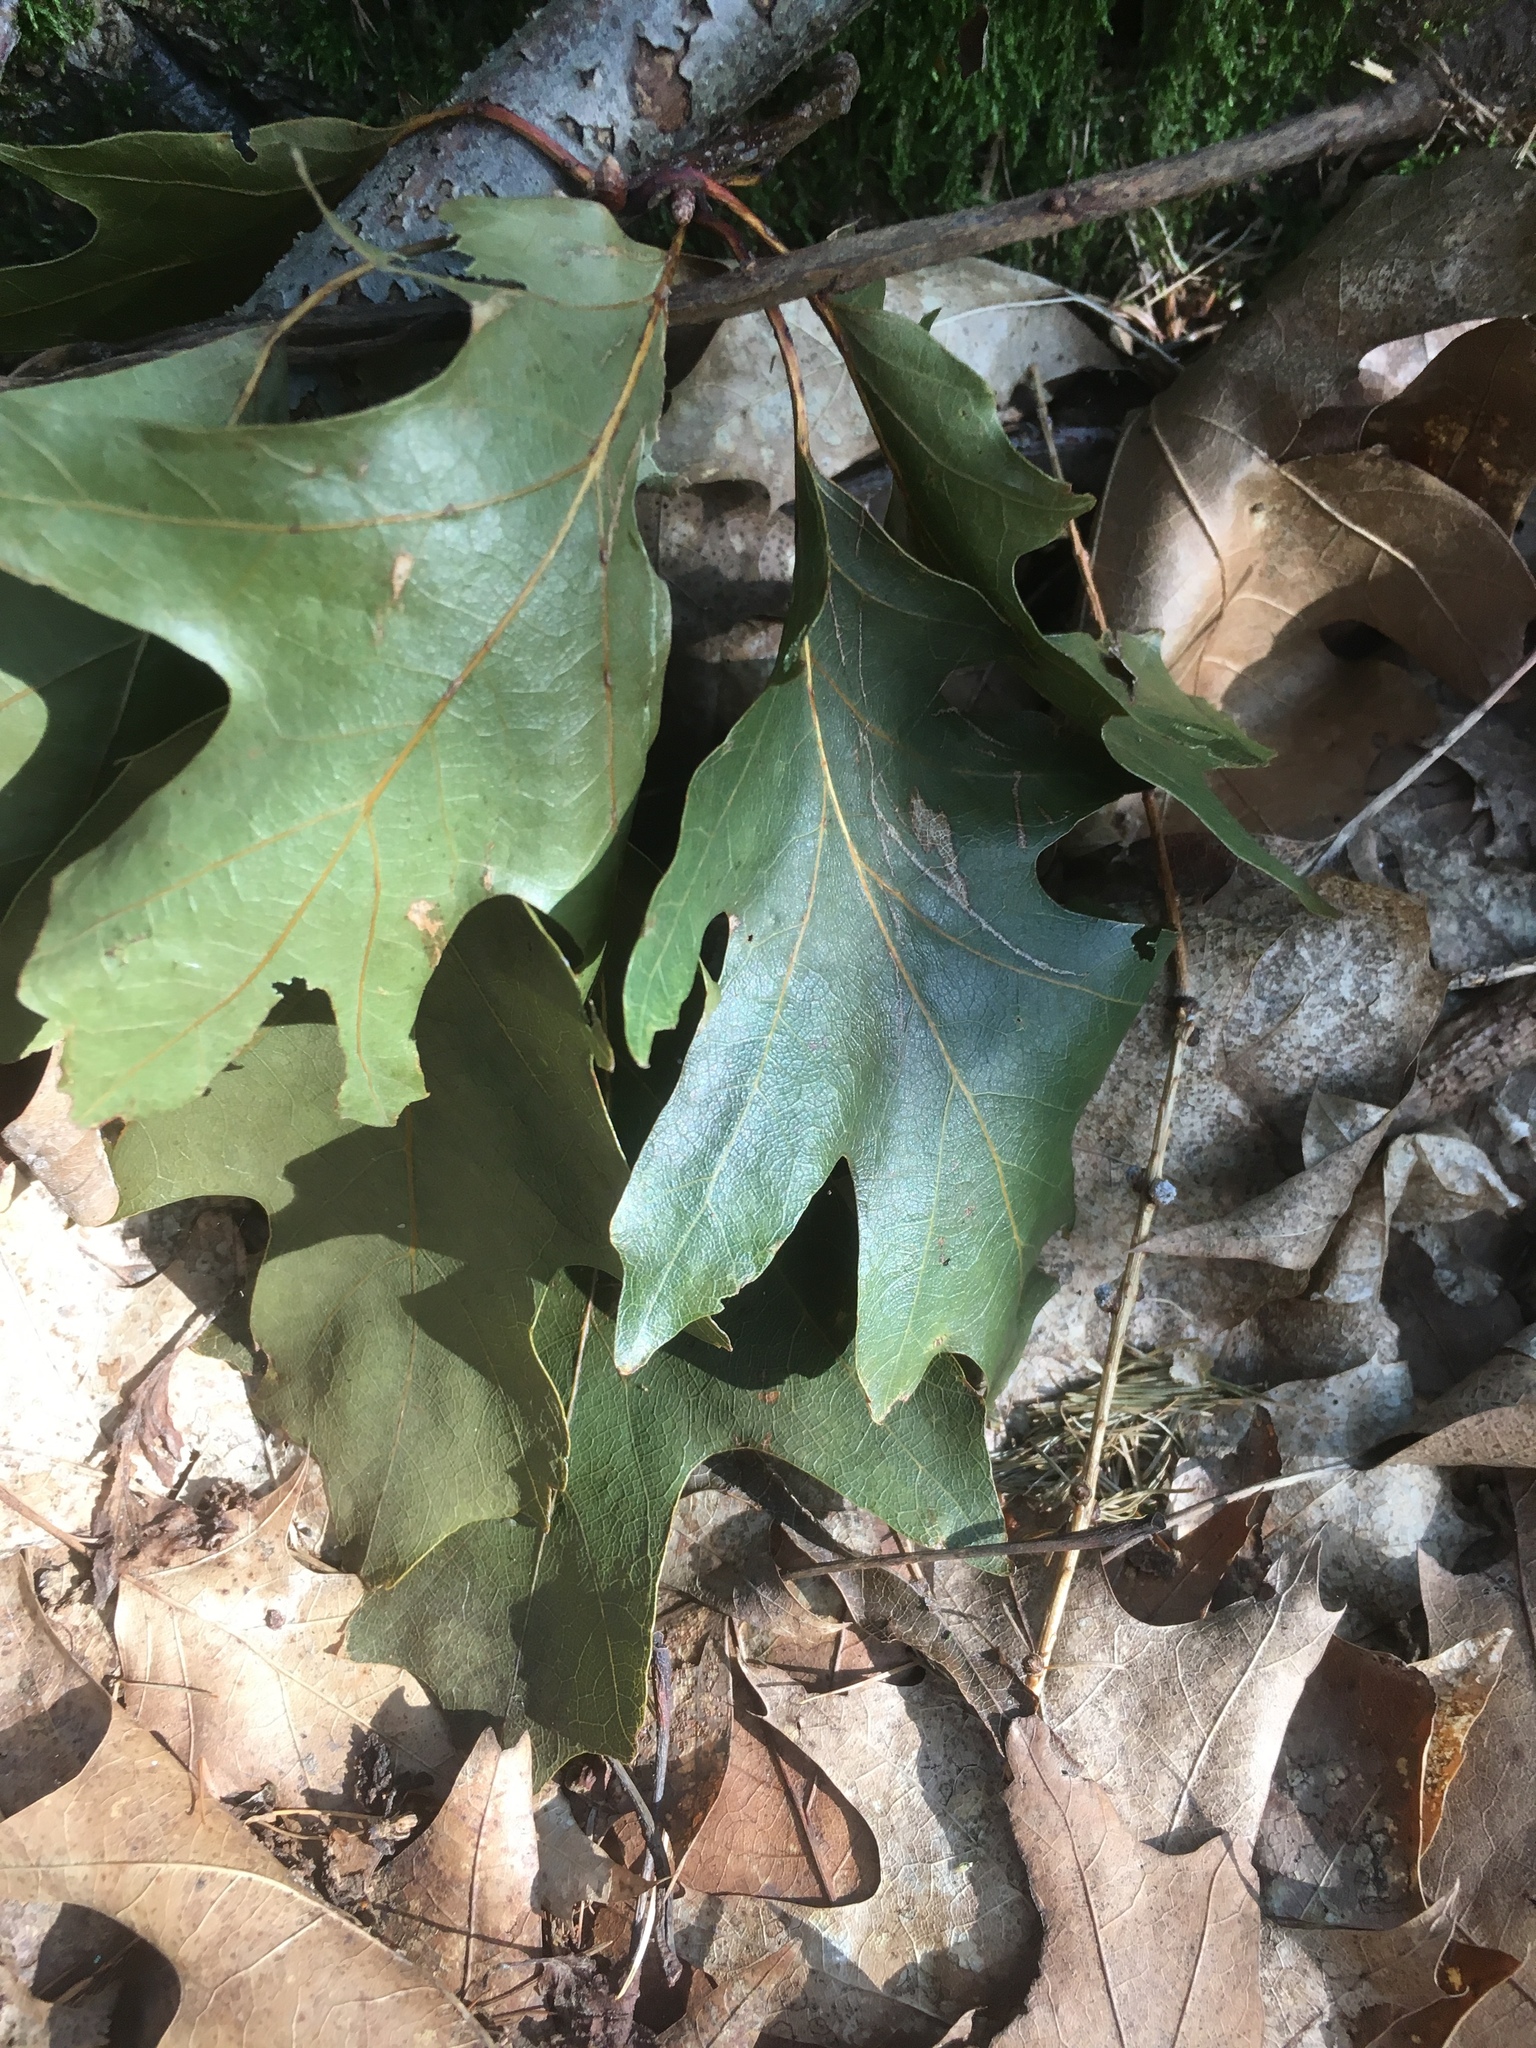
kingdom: Plantae
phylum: Tracheophyta
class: Magnoliopsida
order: Fagales
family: Fagaceae
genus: Quercus
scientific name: Quercus rubra
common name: Red oak
